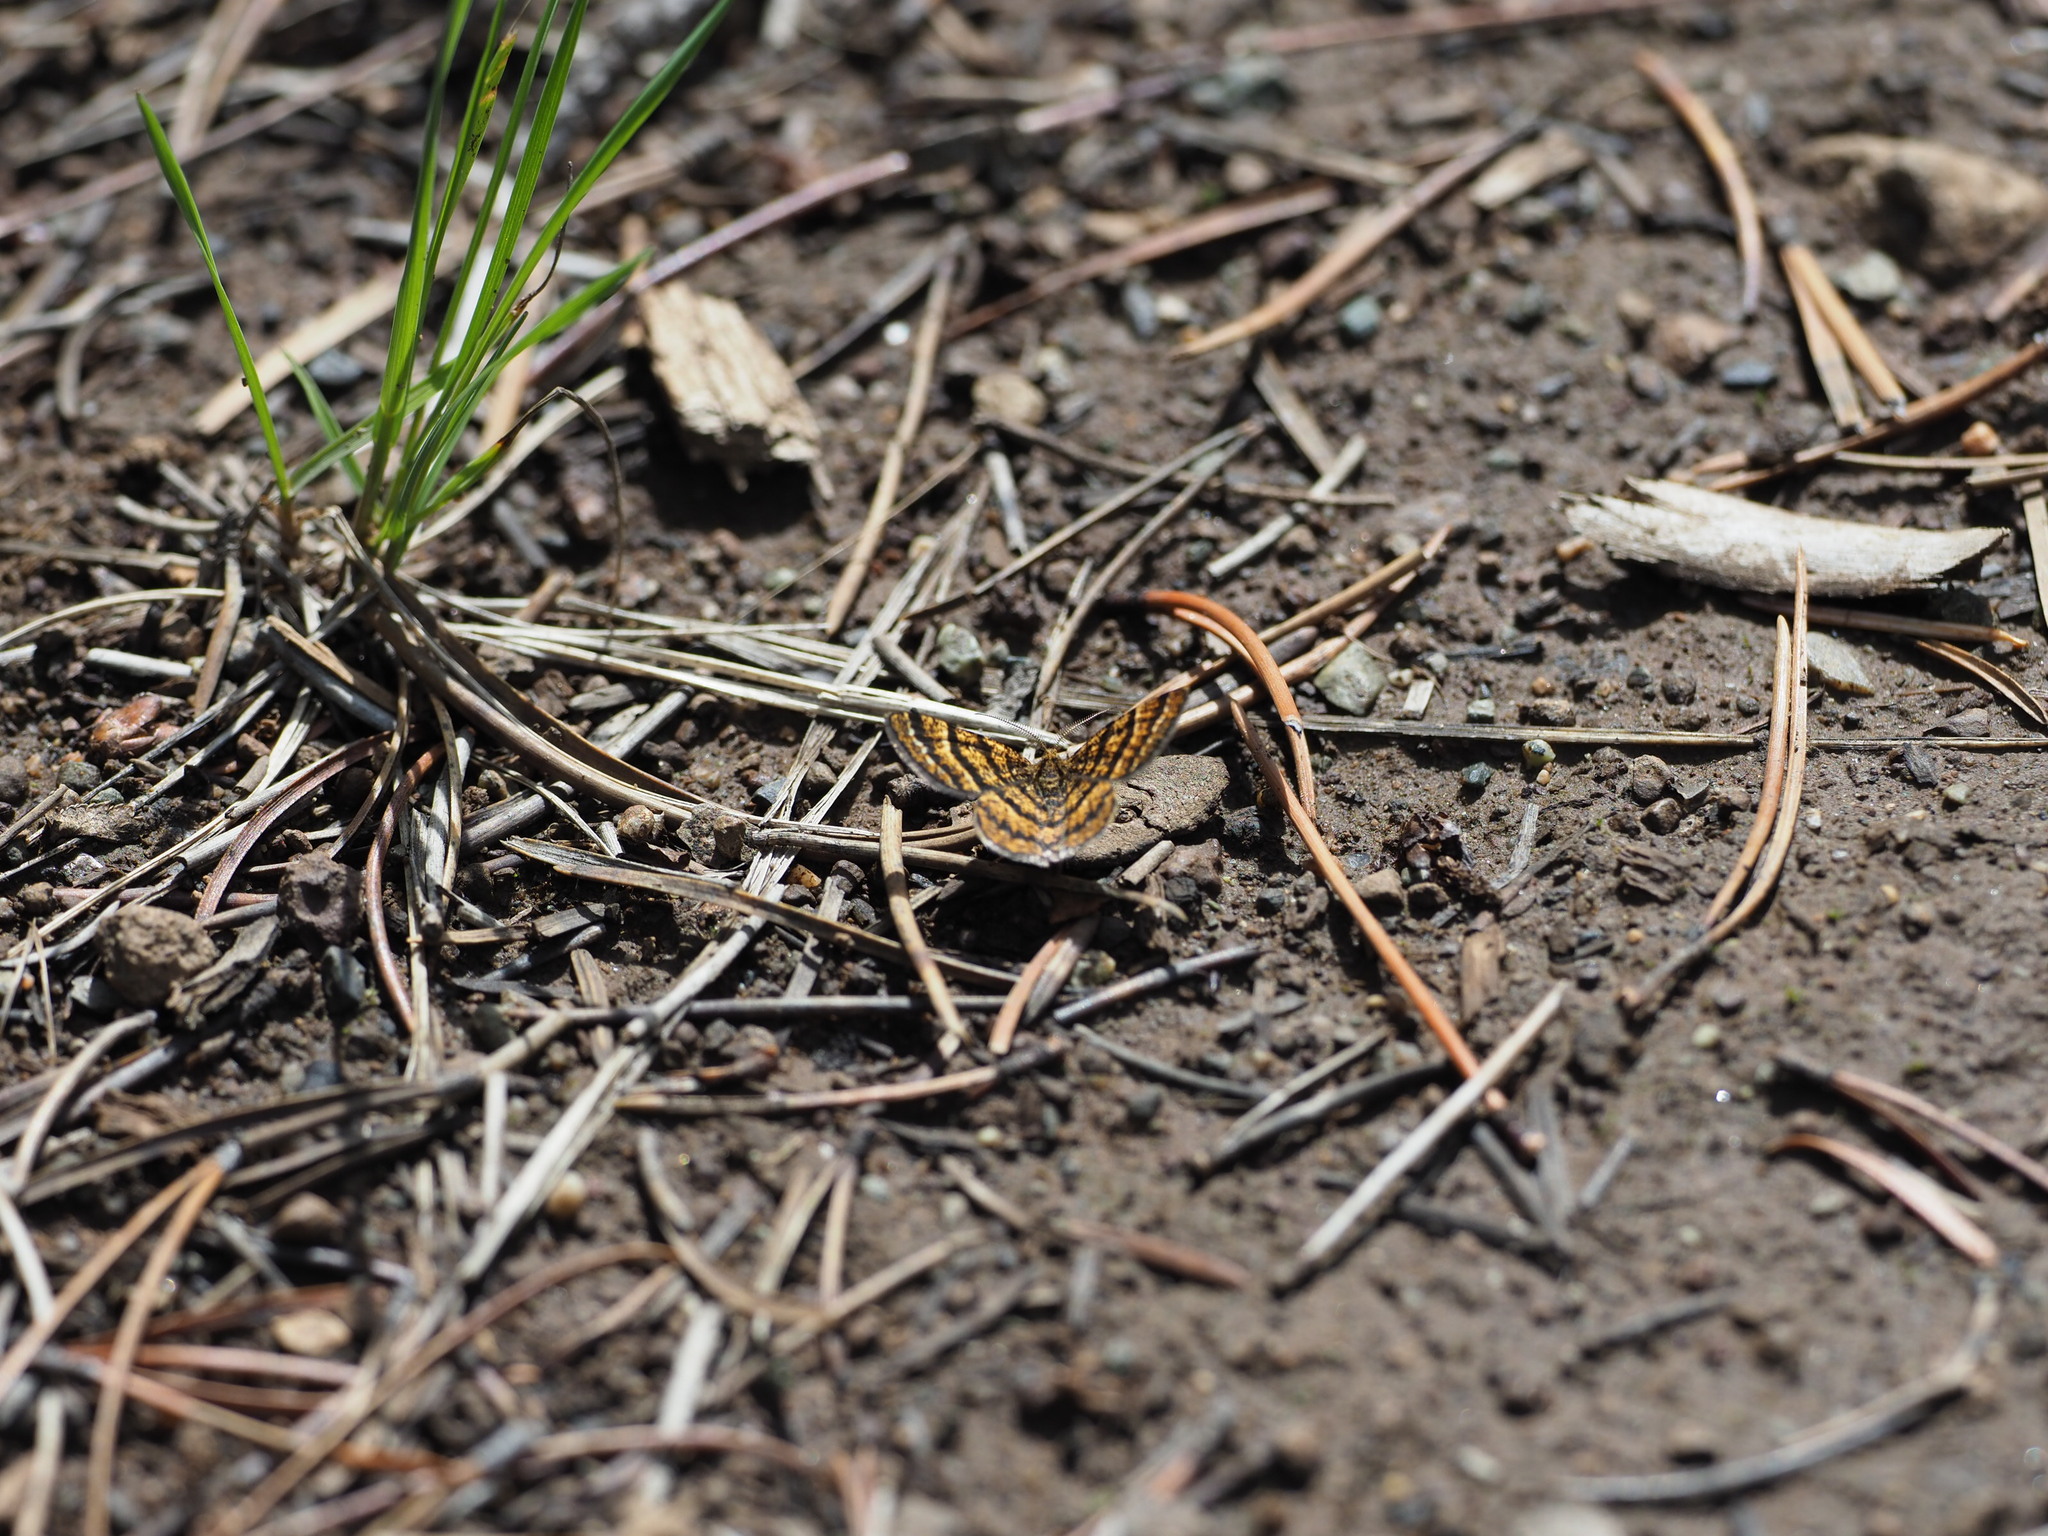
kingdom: Animalia
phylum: Arthropoda
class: Insecta
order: Lepidoptera
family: Geometridae
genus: Macaria
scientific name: Macaria truncataria
